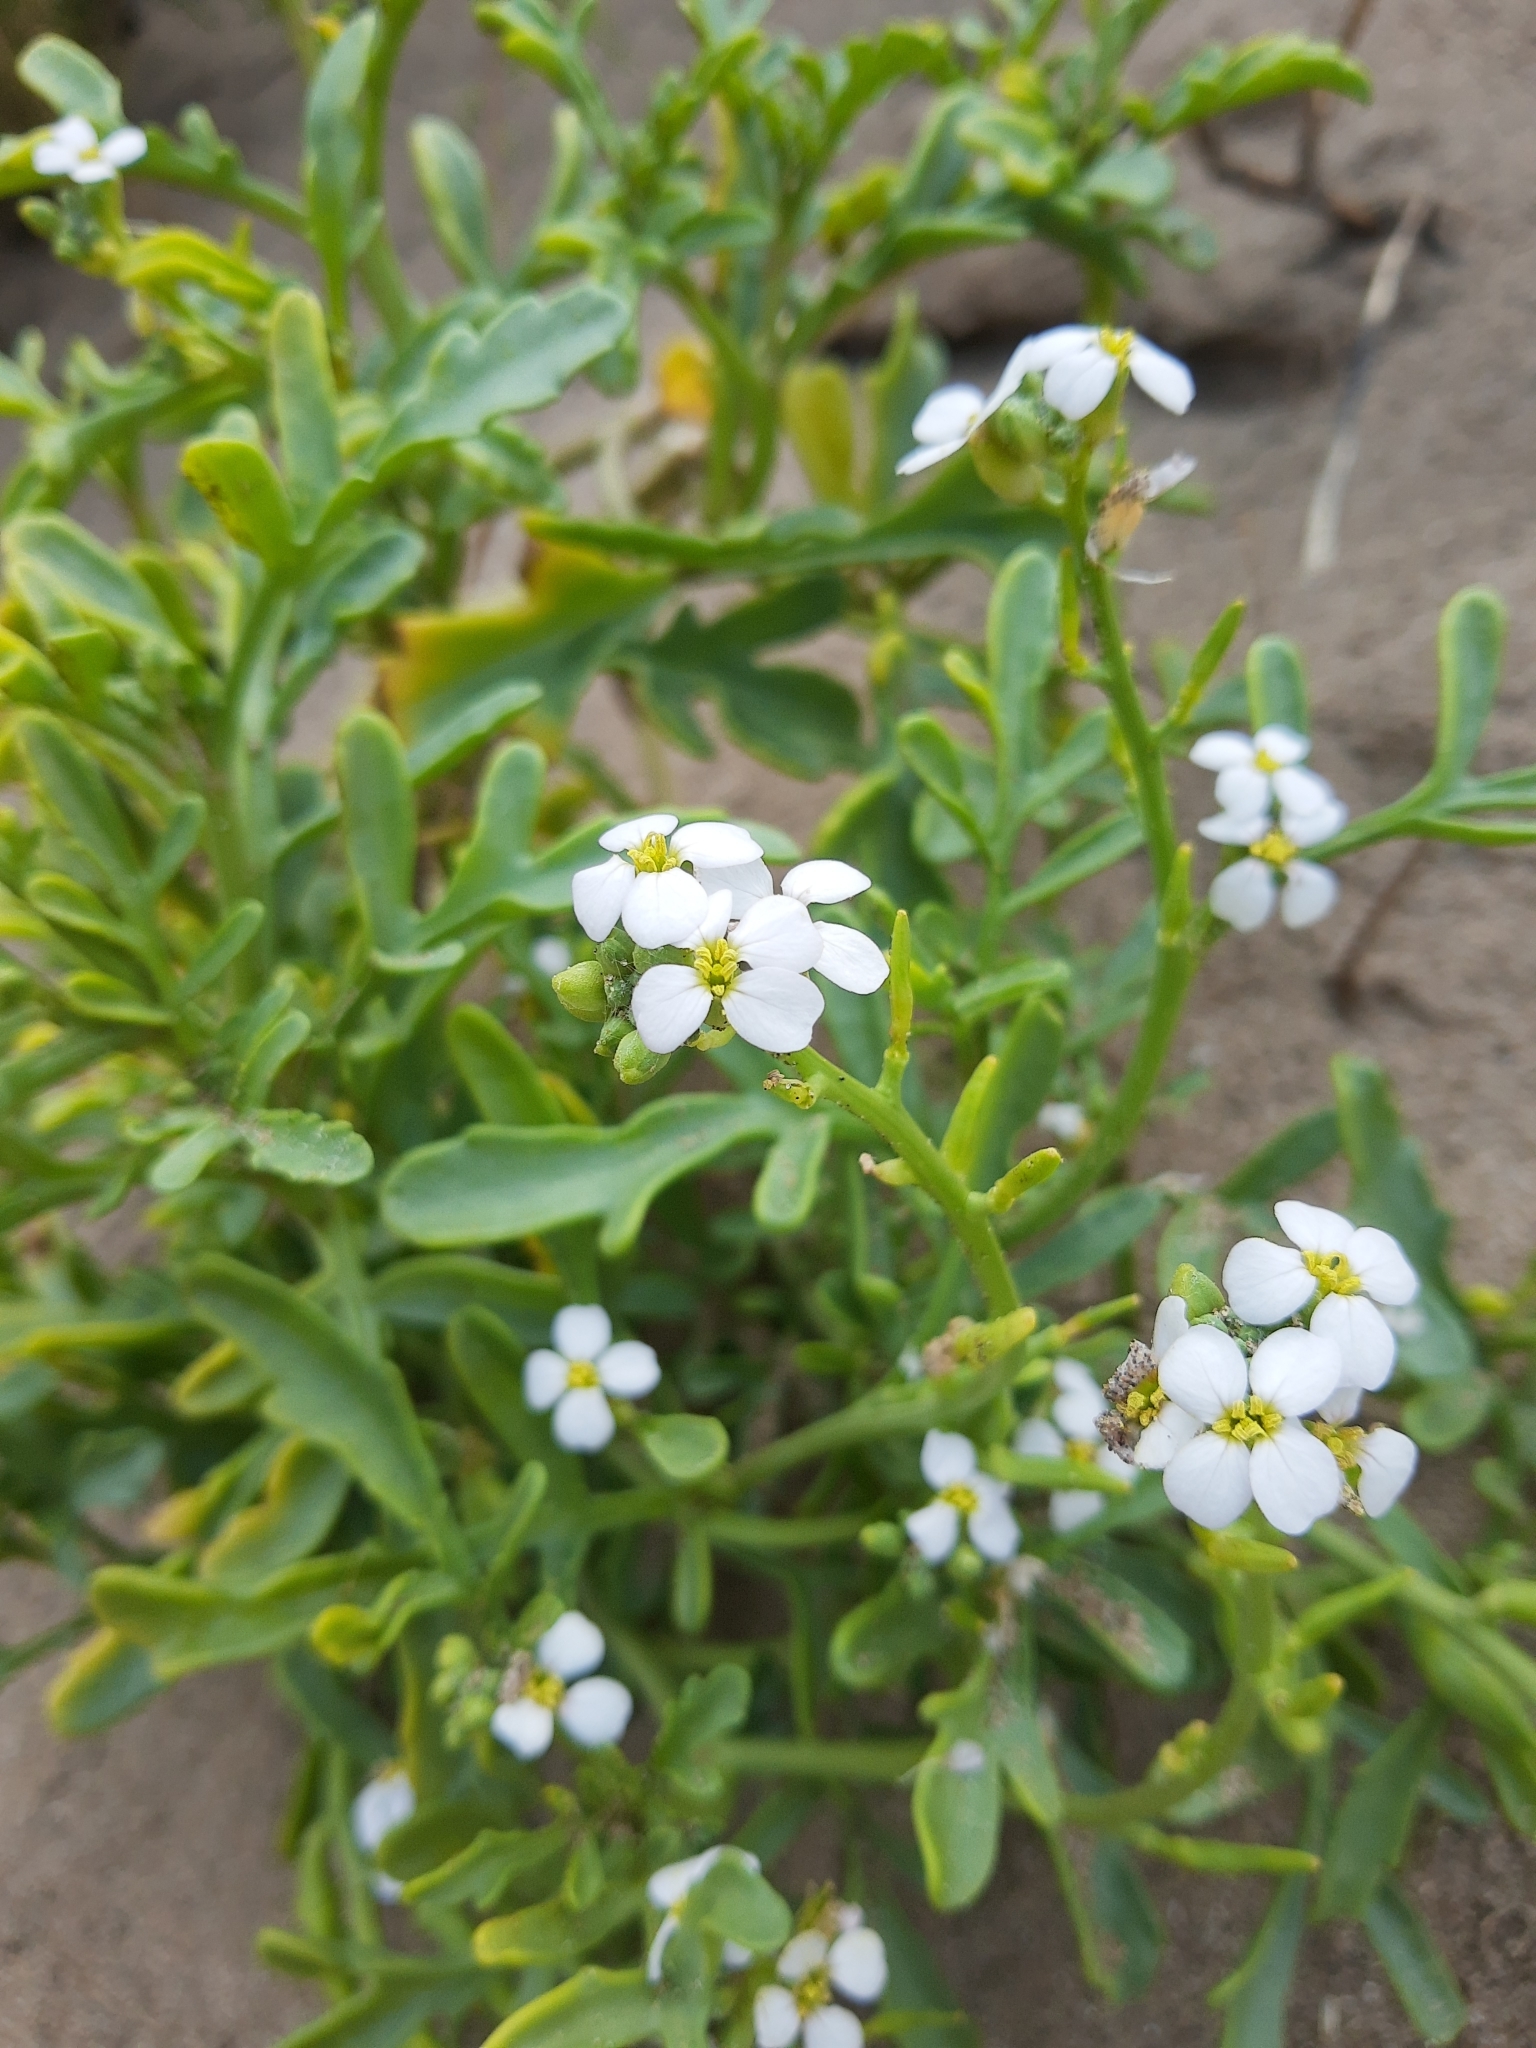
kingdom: Plantae
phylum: Tracheophyta
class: Magnoliopsida
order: Brassicales
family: Brassicaceae
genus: Cakile
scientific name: Cakile maritima
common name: Sea rocket
